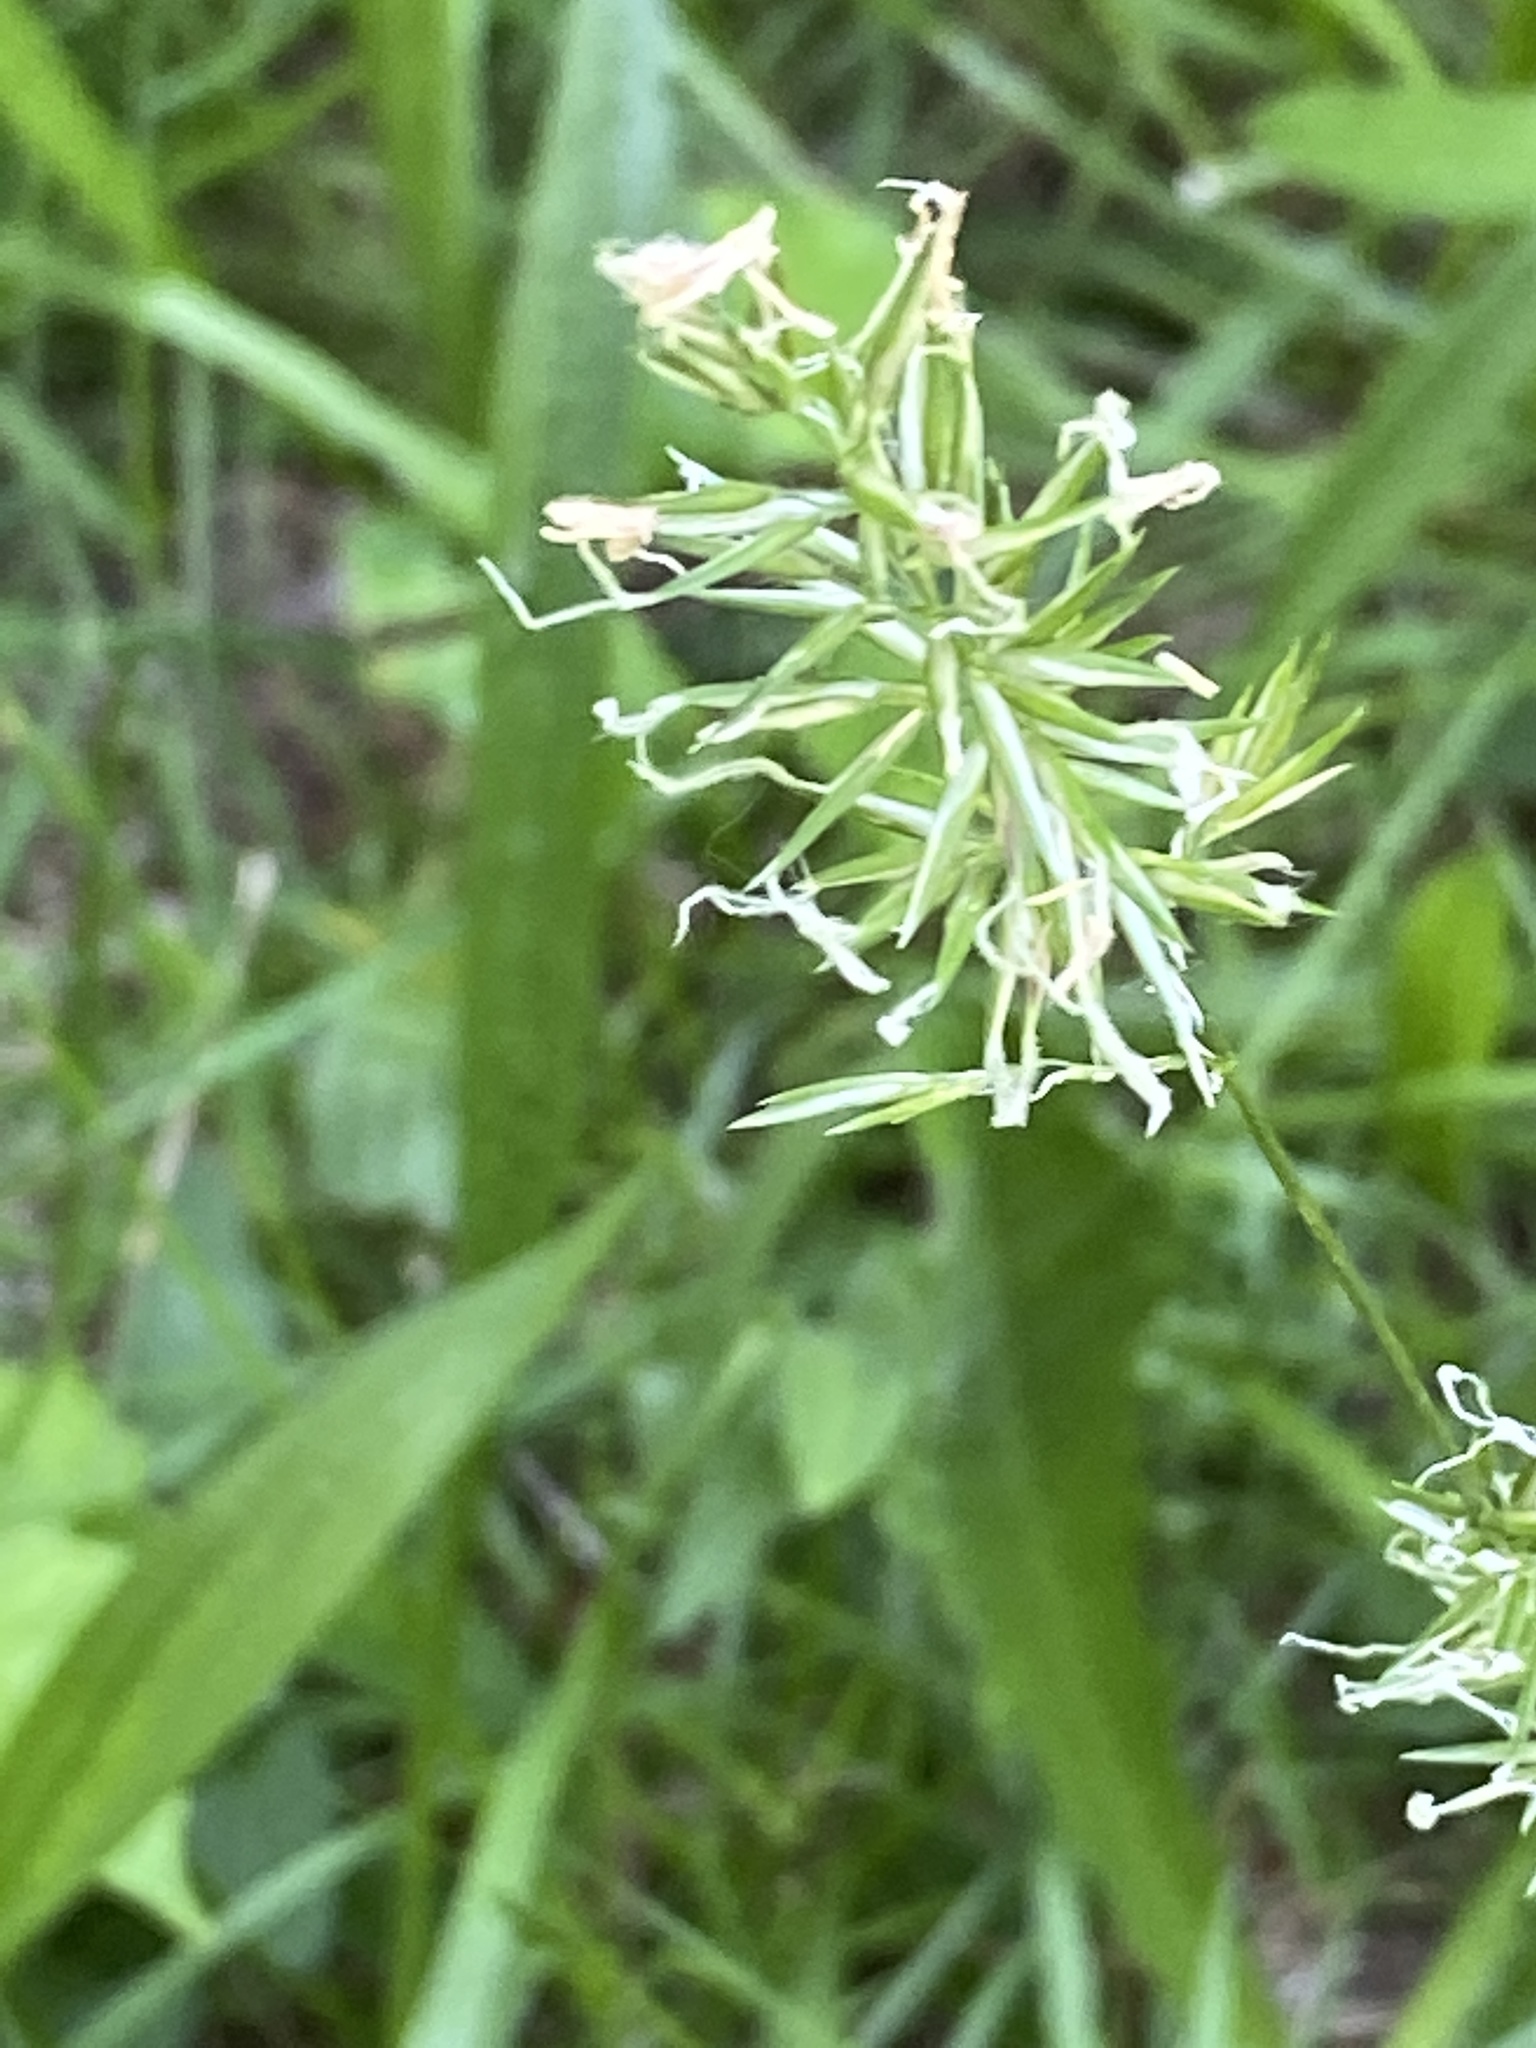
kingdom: Plantae
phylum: Tracheophyta
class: Liliopsida
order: Poales
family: Poaceae
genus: Anthoxanthum
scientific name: Anthoxanthum odoratum
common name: Sweet vernalgrass
